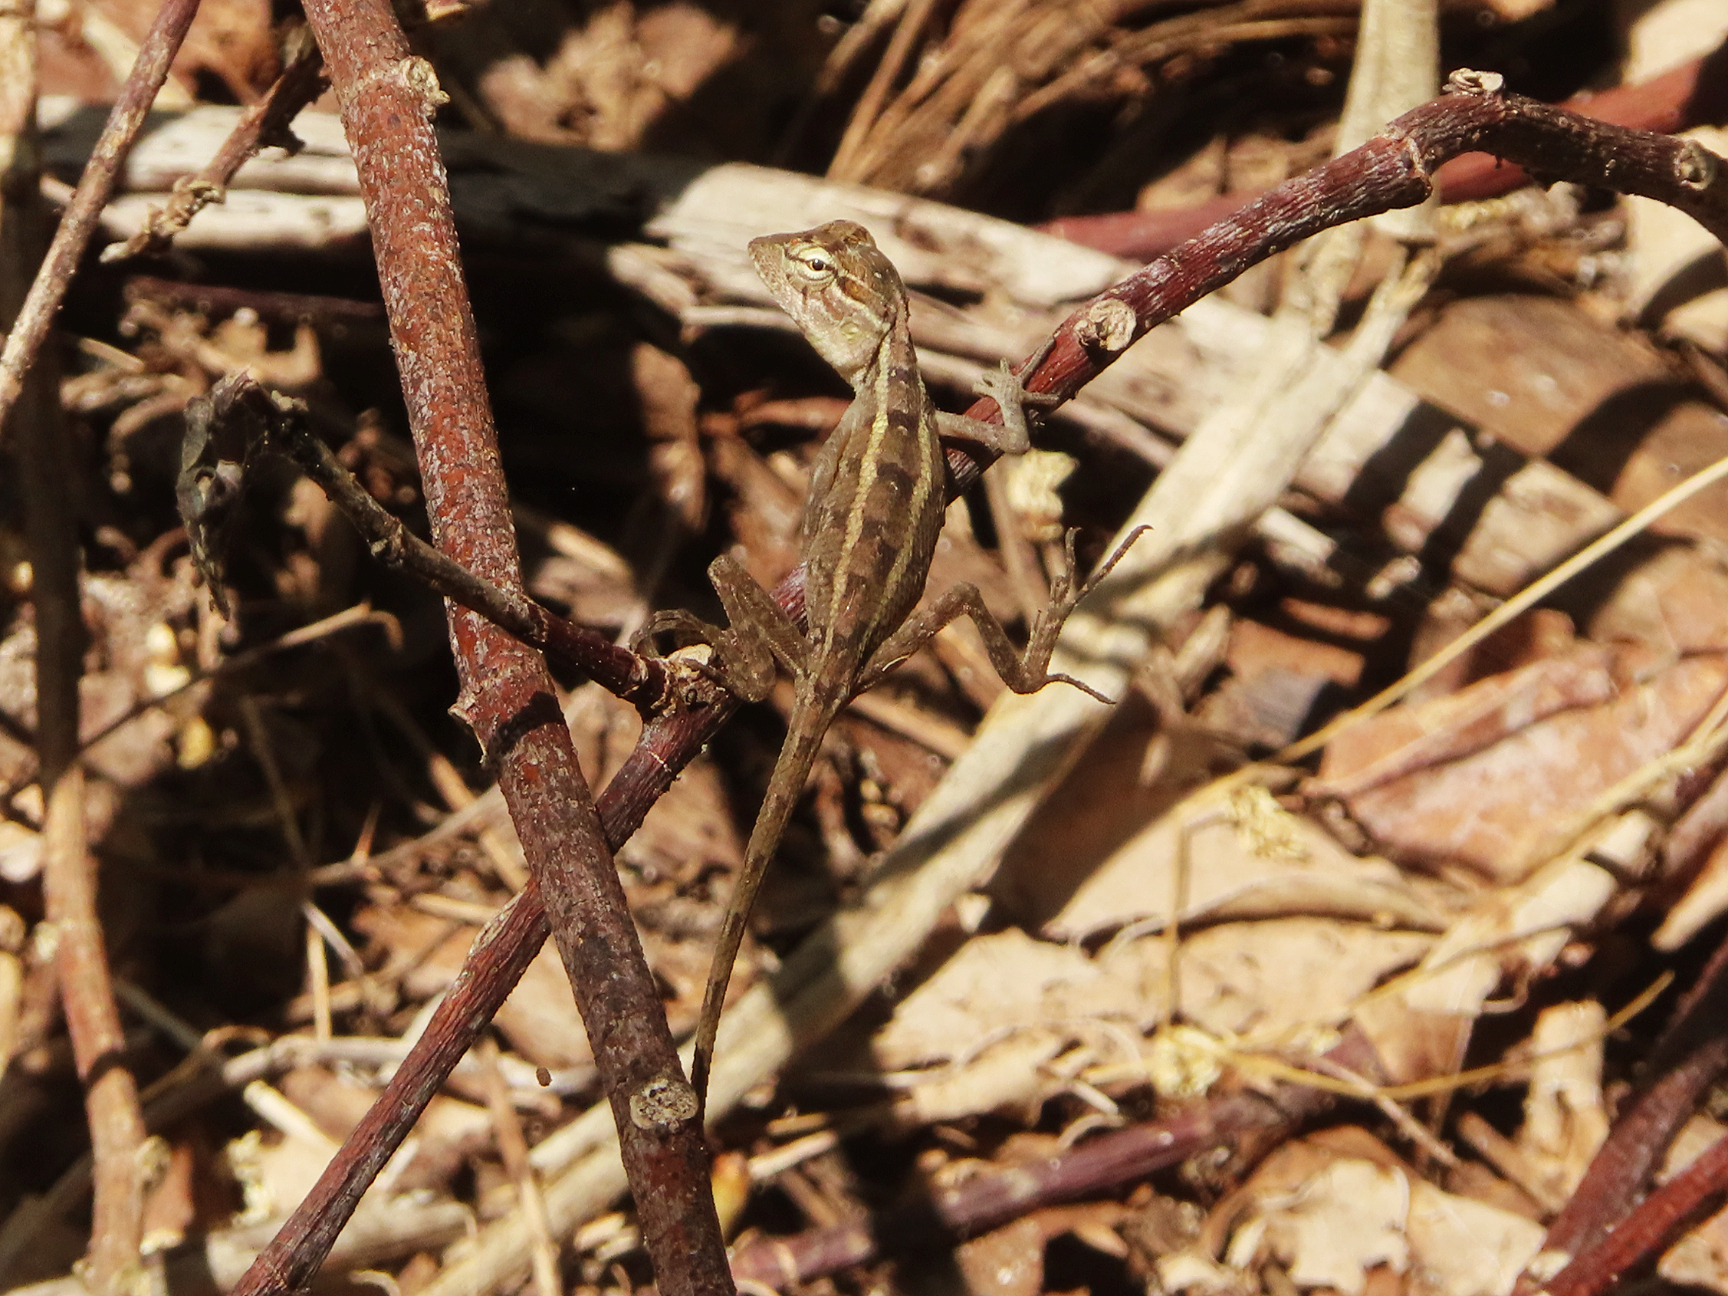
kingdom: Animalia
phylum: Chordata
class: Squamata
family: Agamidae
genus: Calotes
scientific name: Calotes versicolor
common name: Oriental garden lizard
